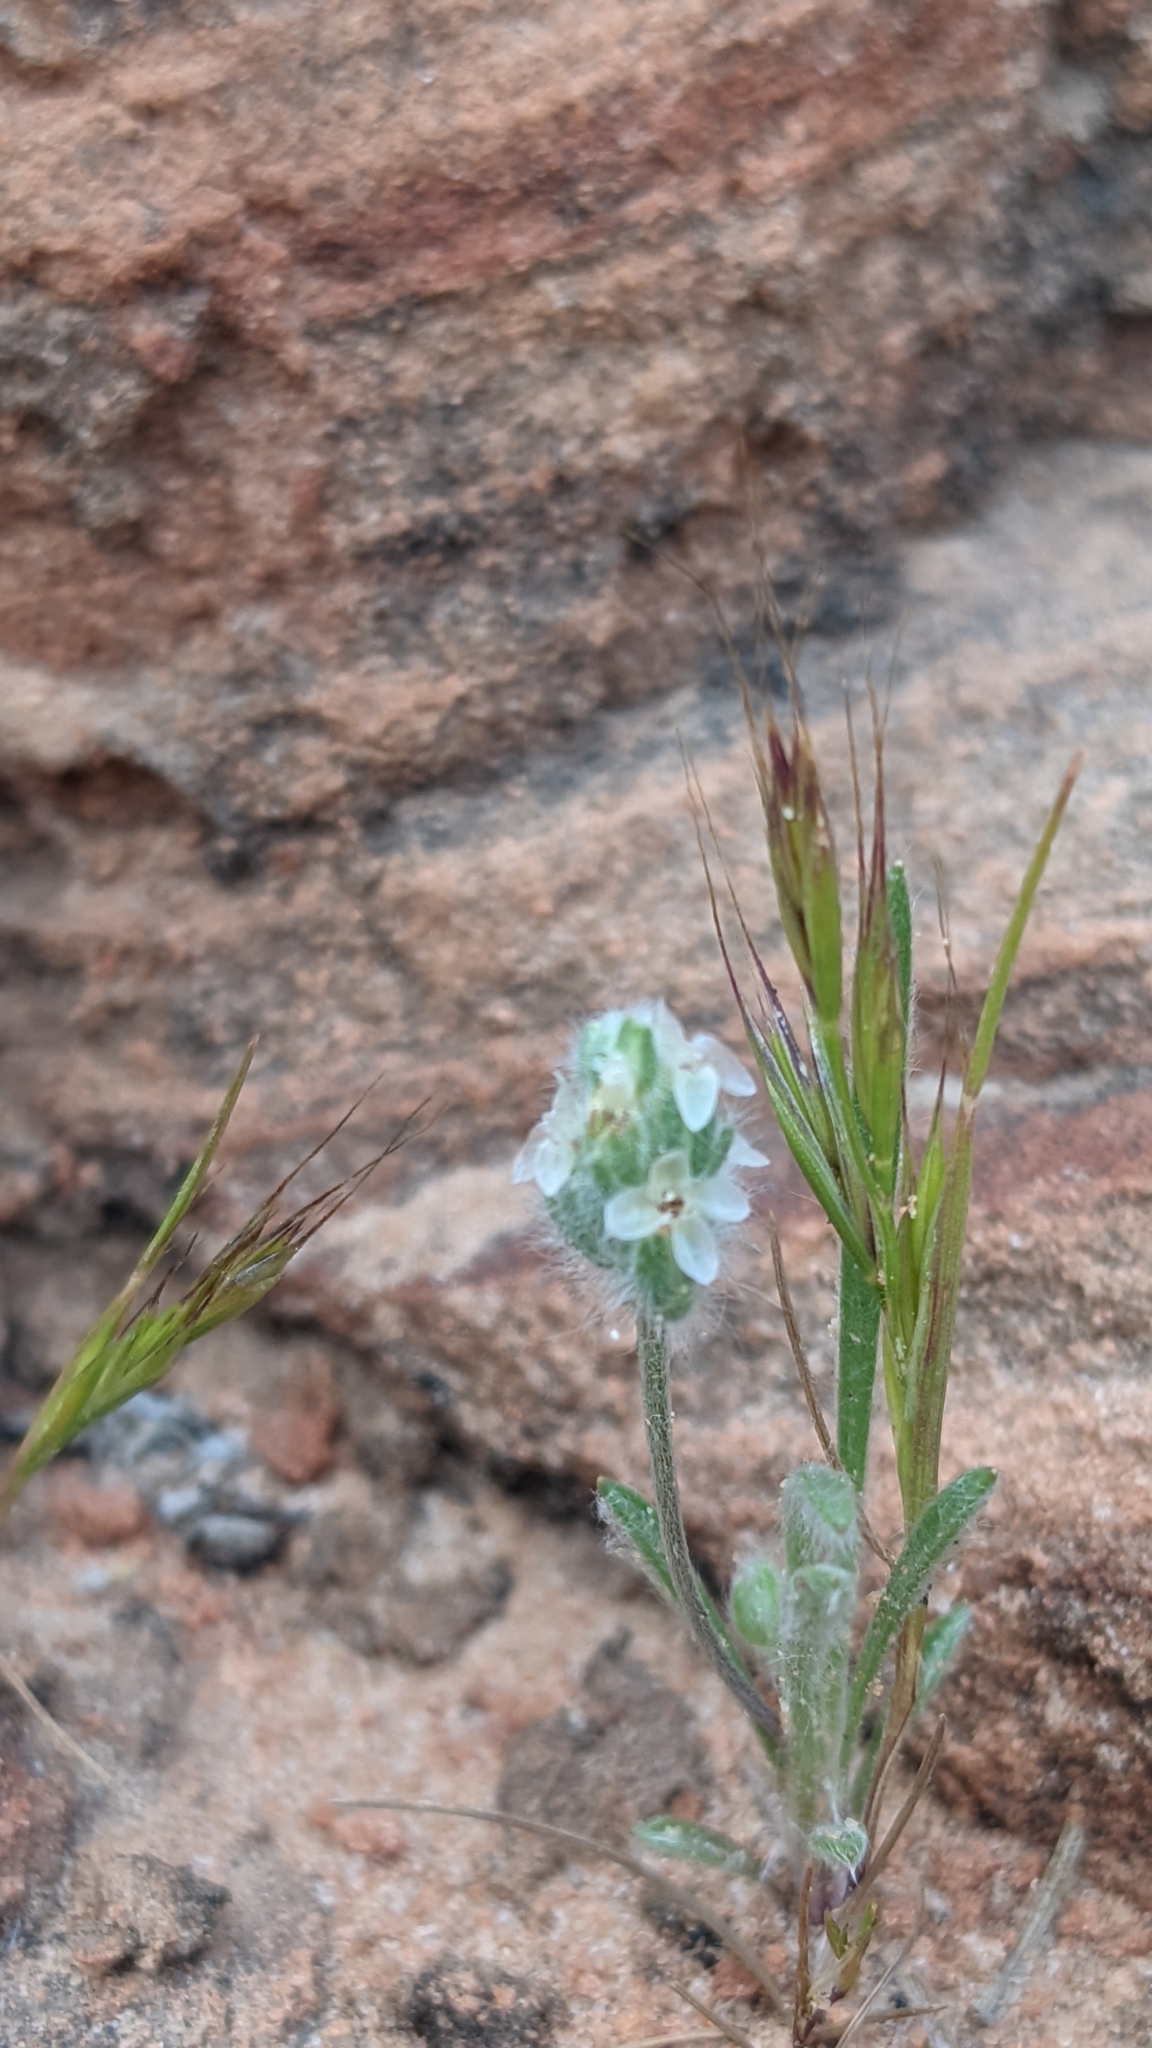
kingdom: Plantae
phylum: Tracheophyta
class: Magnoliopsida
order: Lamiales
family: Plantaginaceae
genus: Plantago
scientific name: Plantago patagonica
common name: Patagonia indian-wheat
